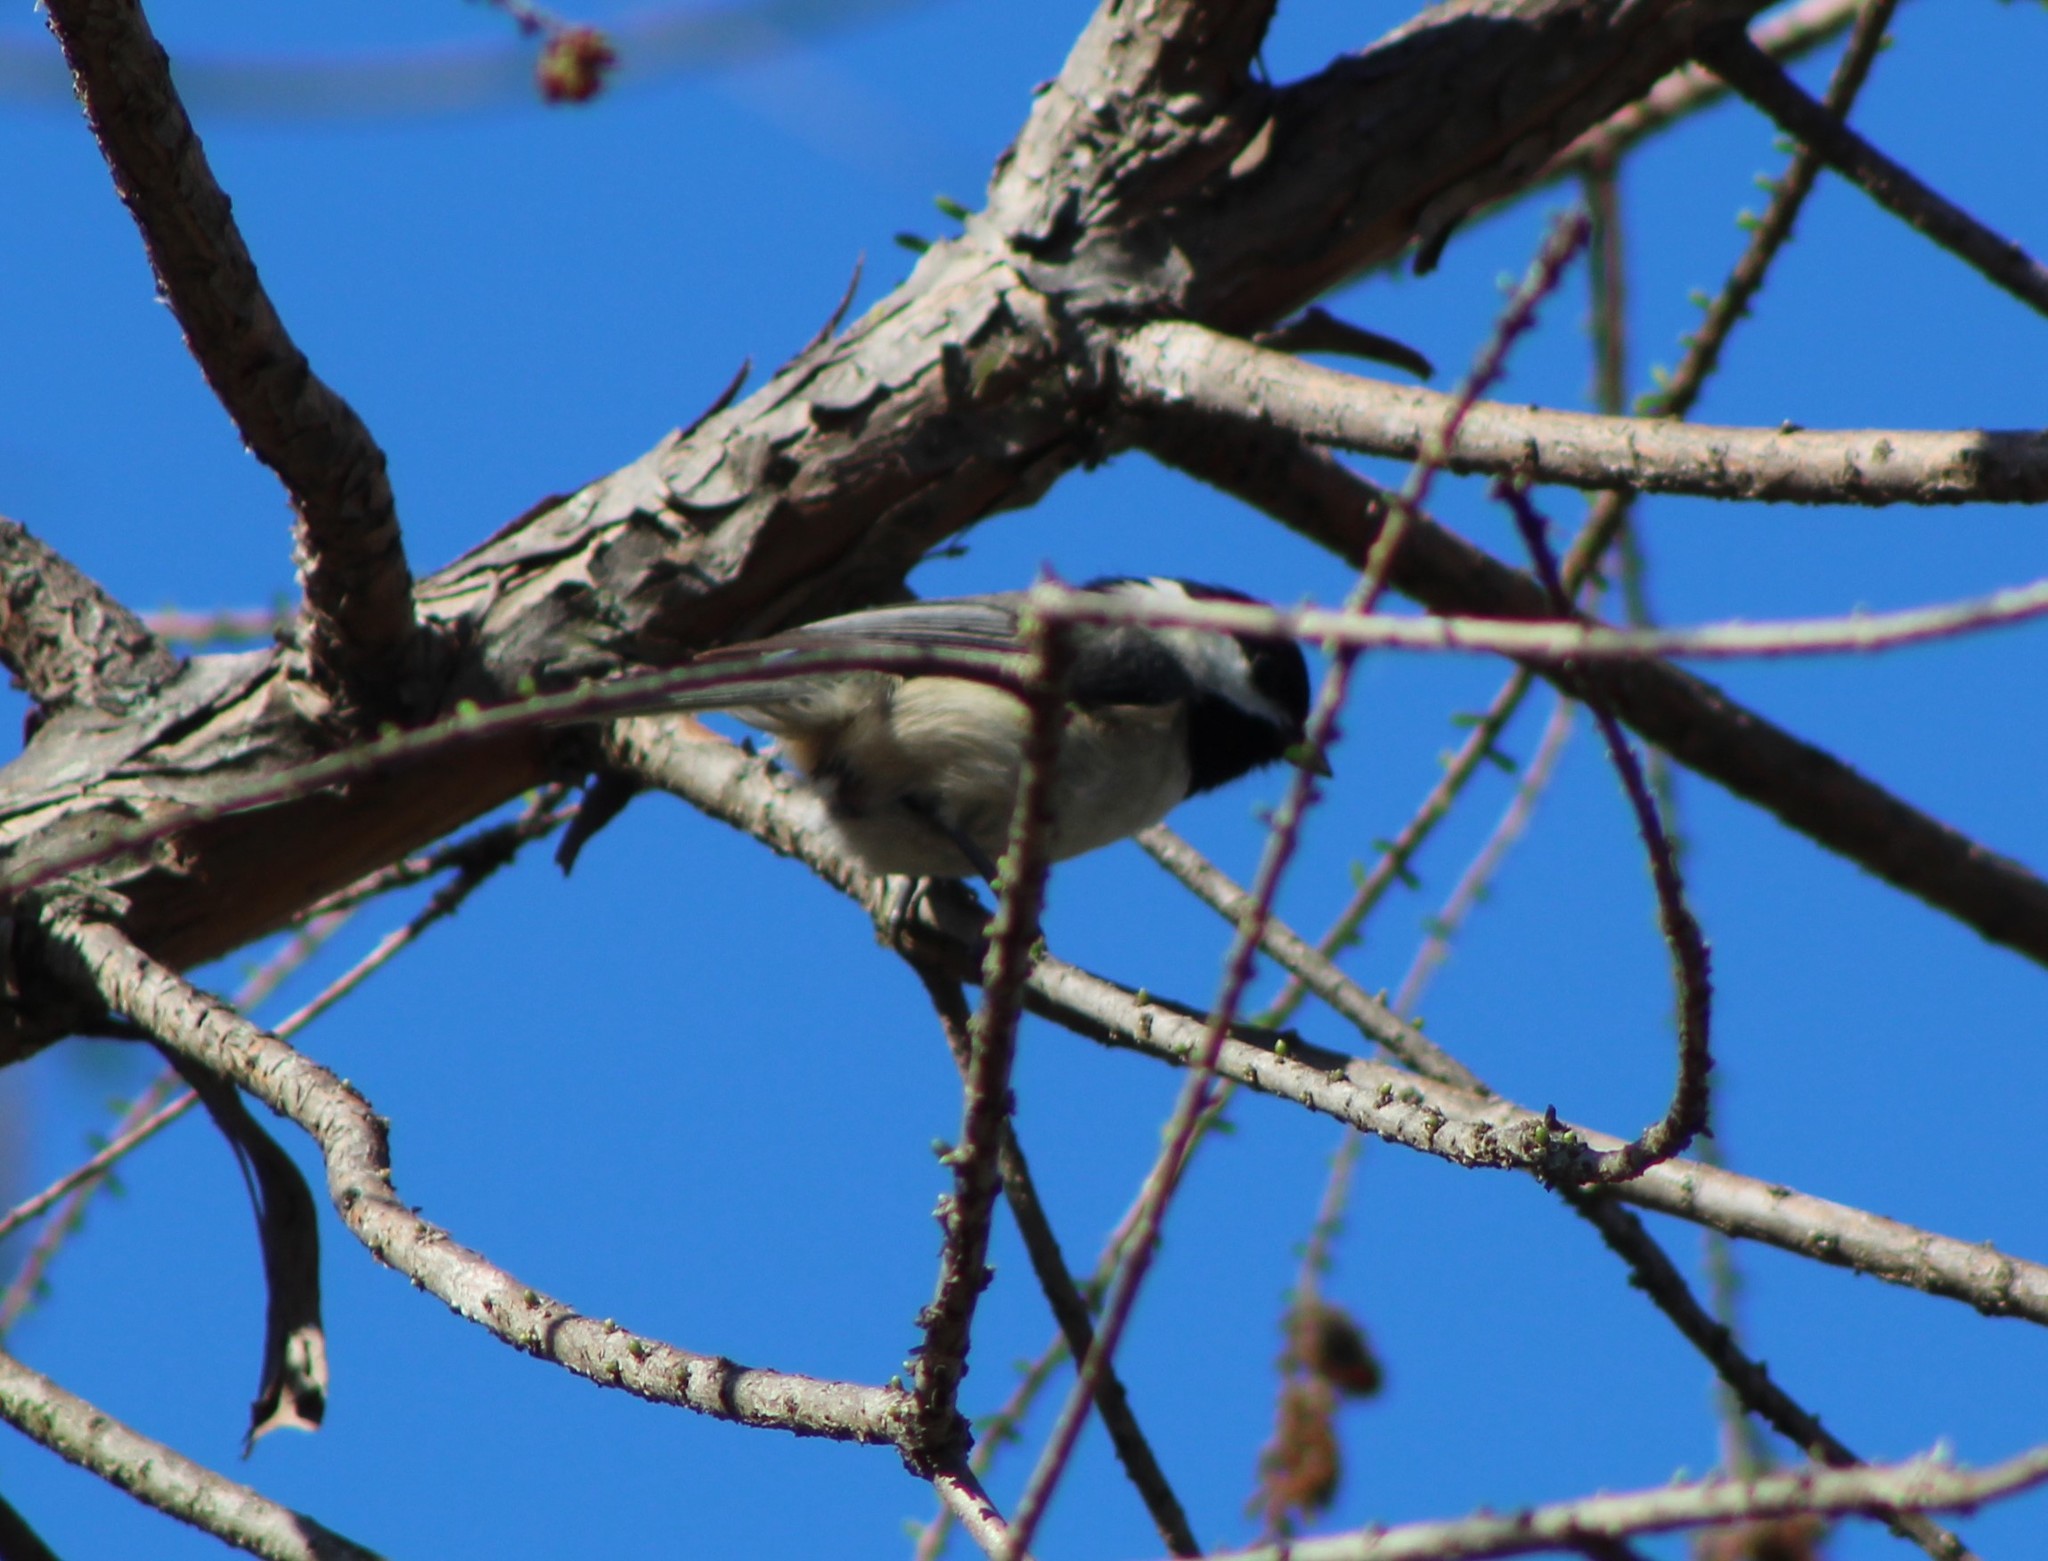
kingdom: Animalia
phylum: Chordata
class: Aves
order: Passeriformes
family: Paridae
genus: Poecile
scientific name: Poecile carolinensis
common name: Carolina chickadee
